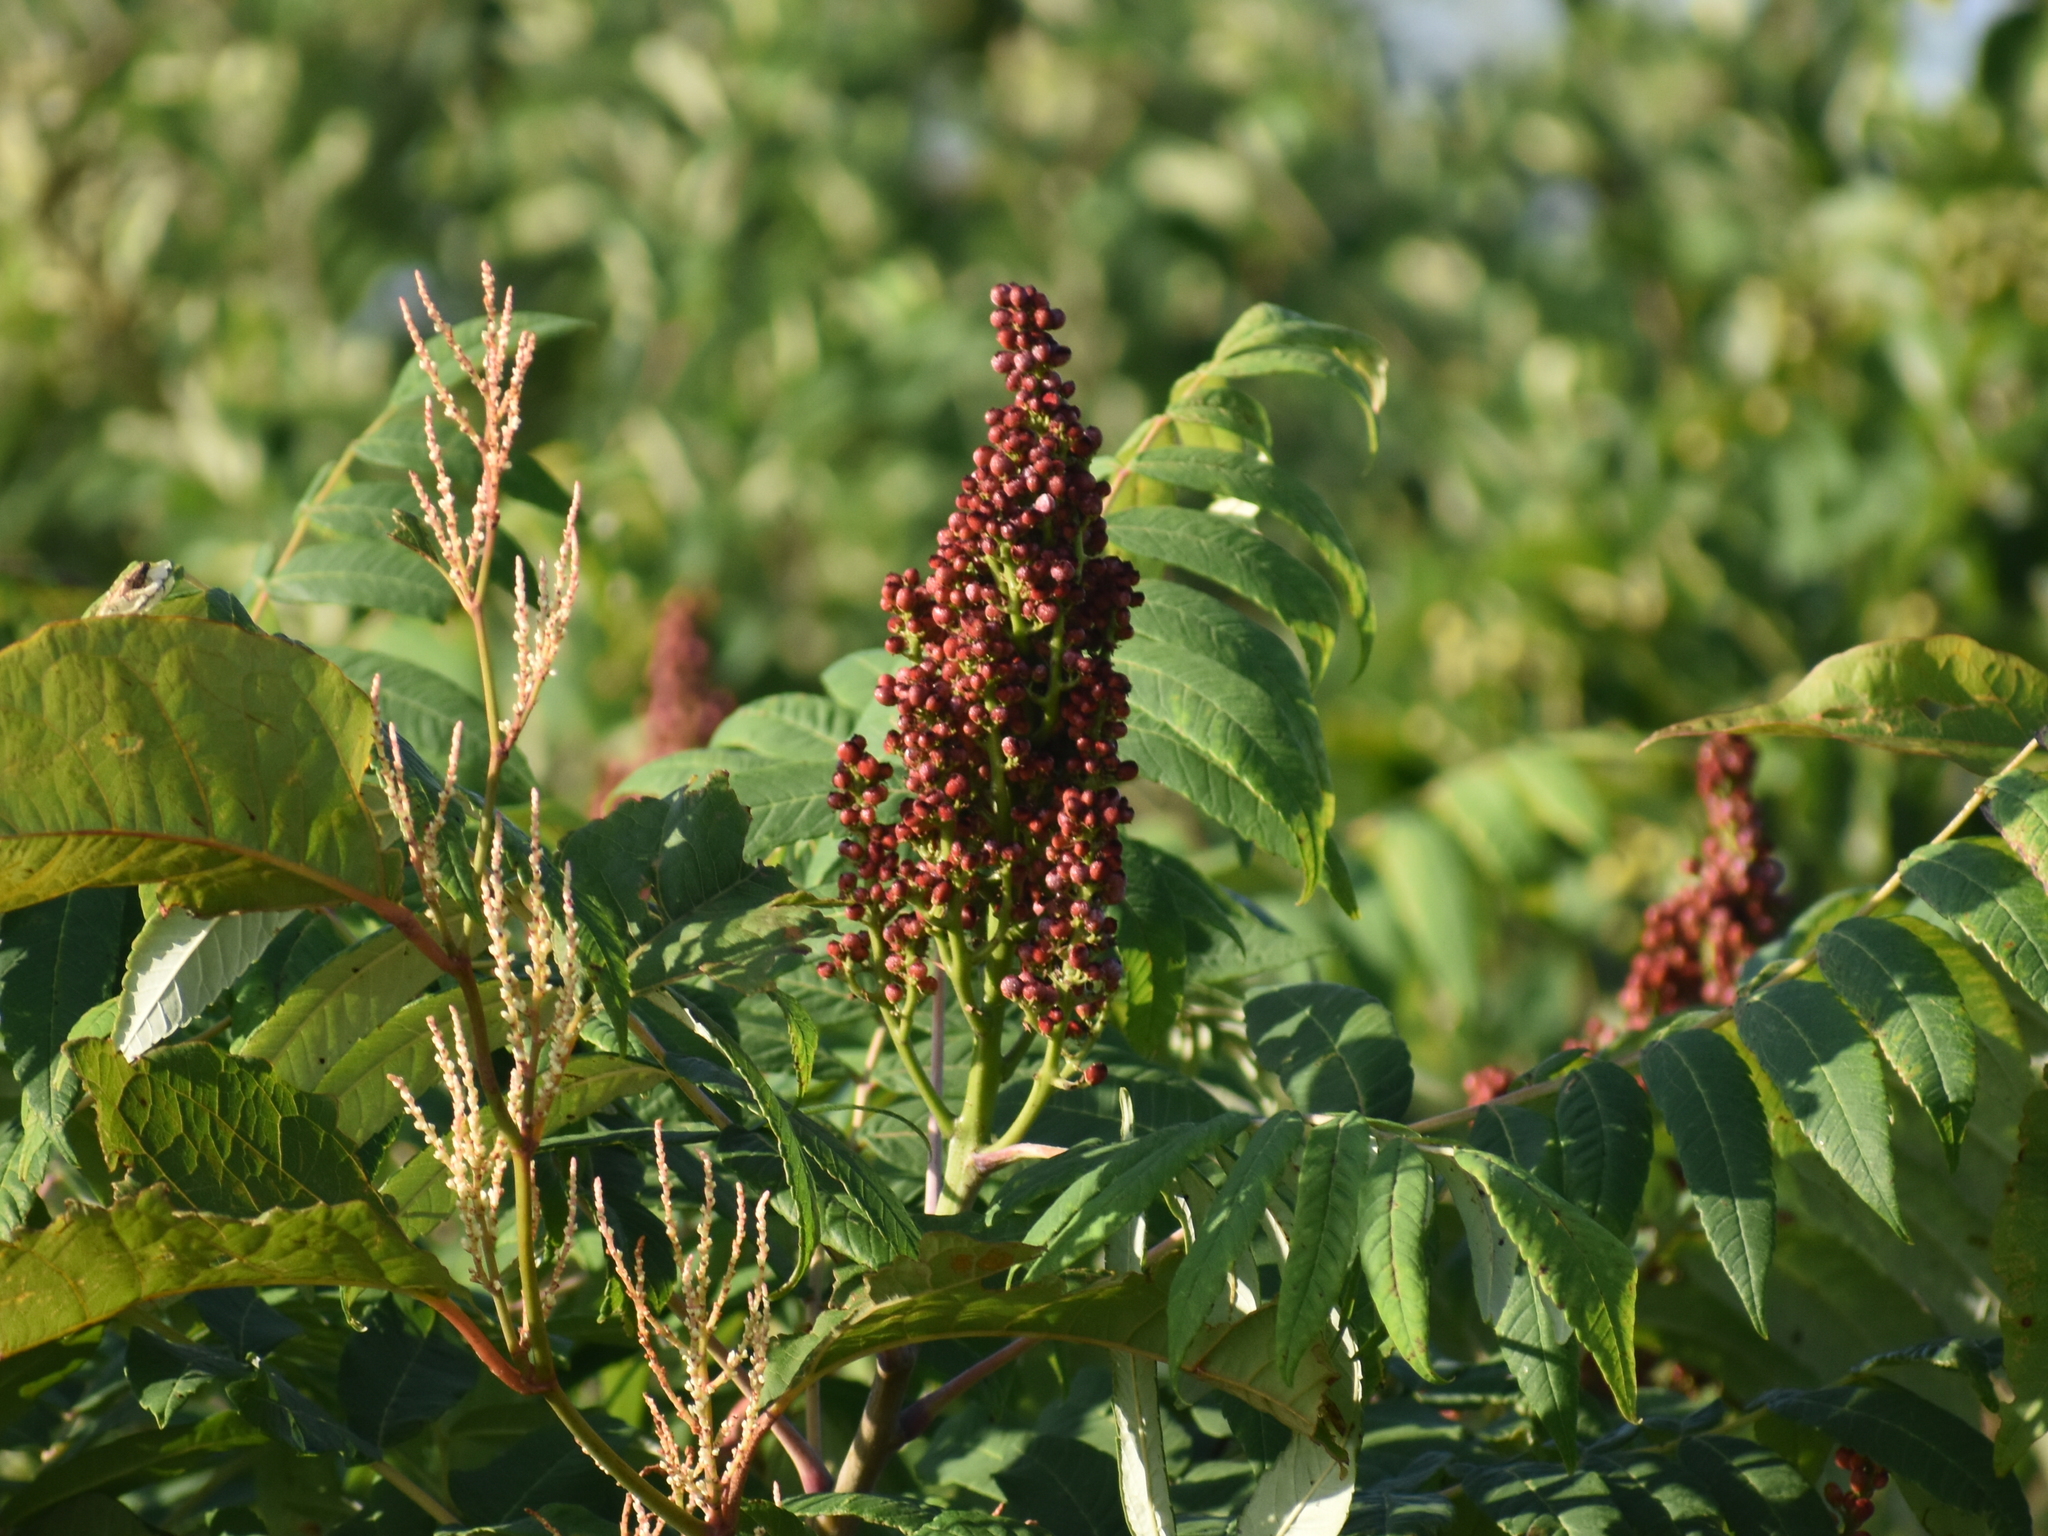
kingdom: Plantae
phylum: Tracheophyta
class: Magnoliopsida
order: Sapindales
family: Anacardiaceae
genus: Rhus
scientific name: Rhus glabra
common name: Scarlet sumac
